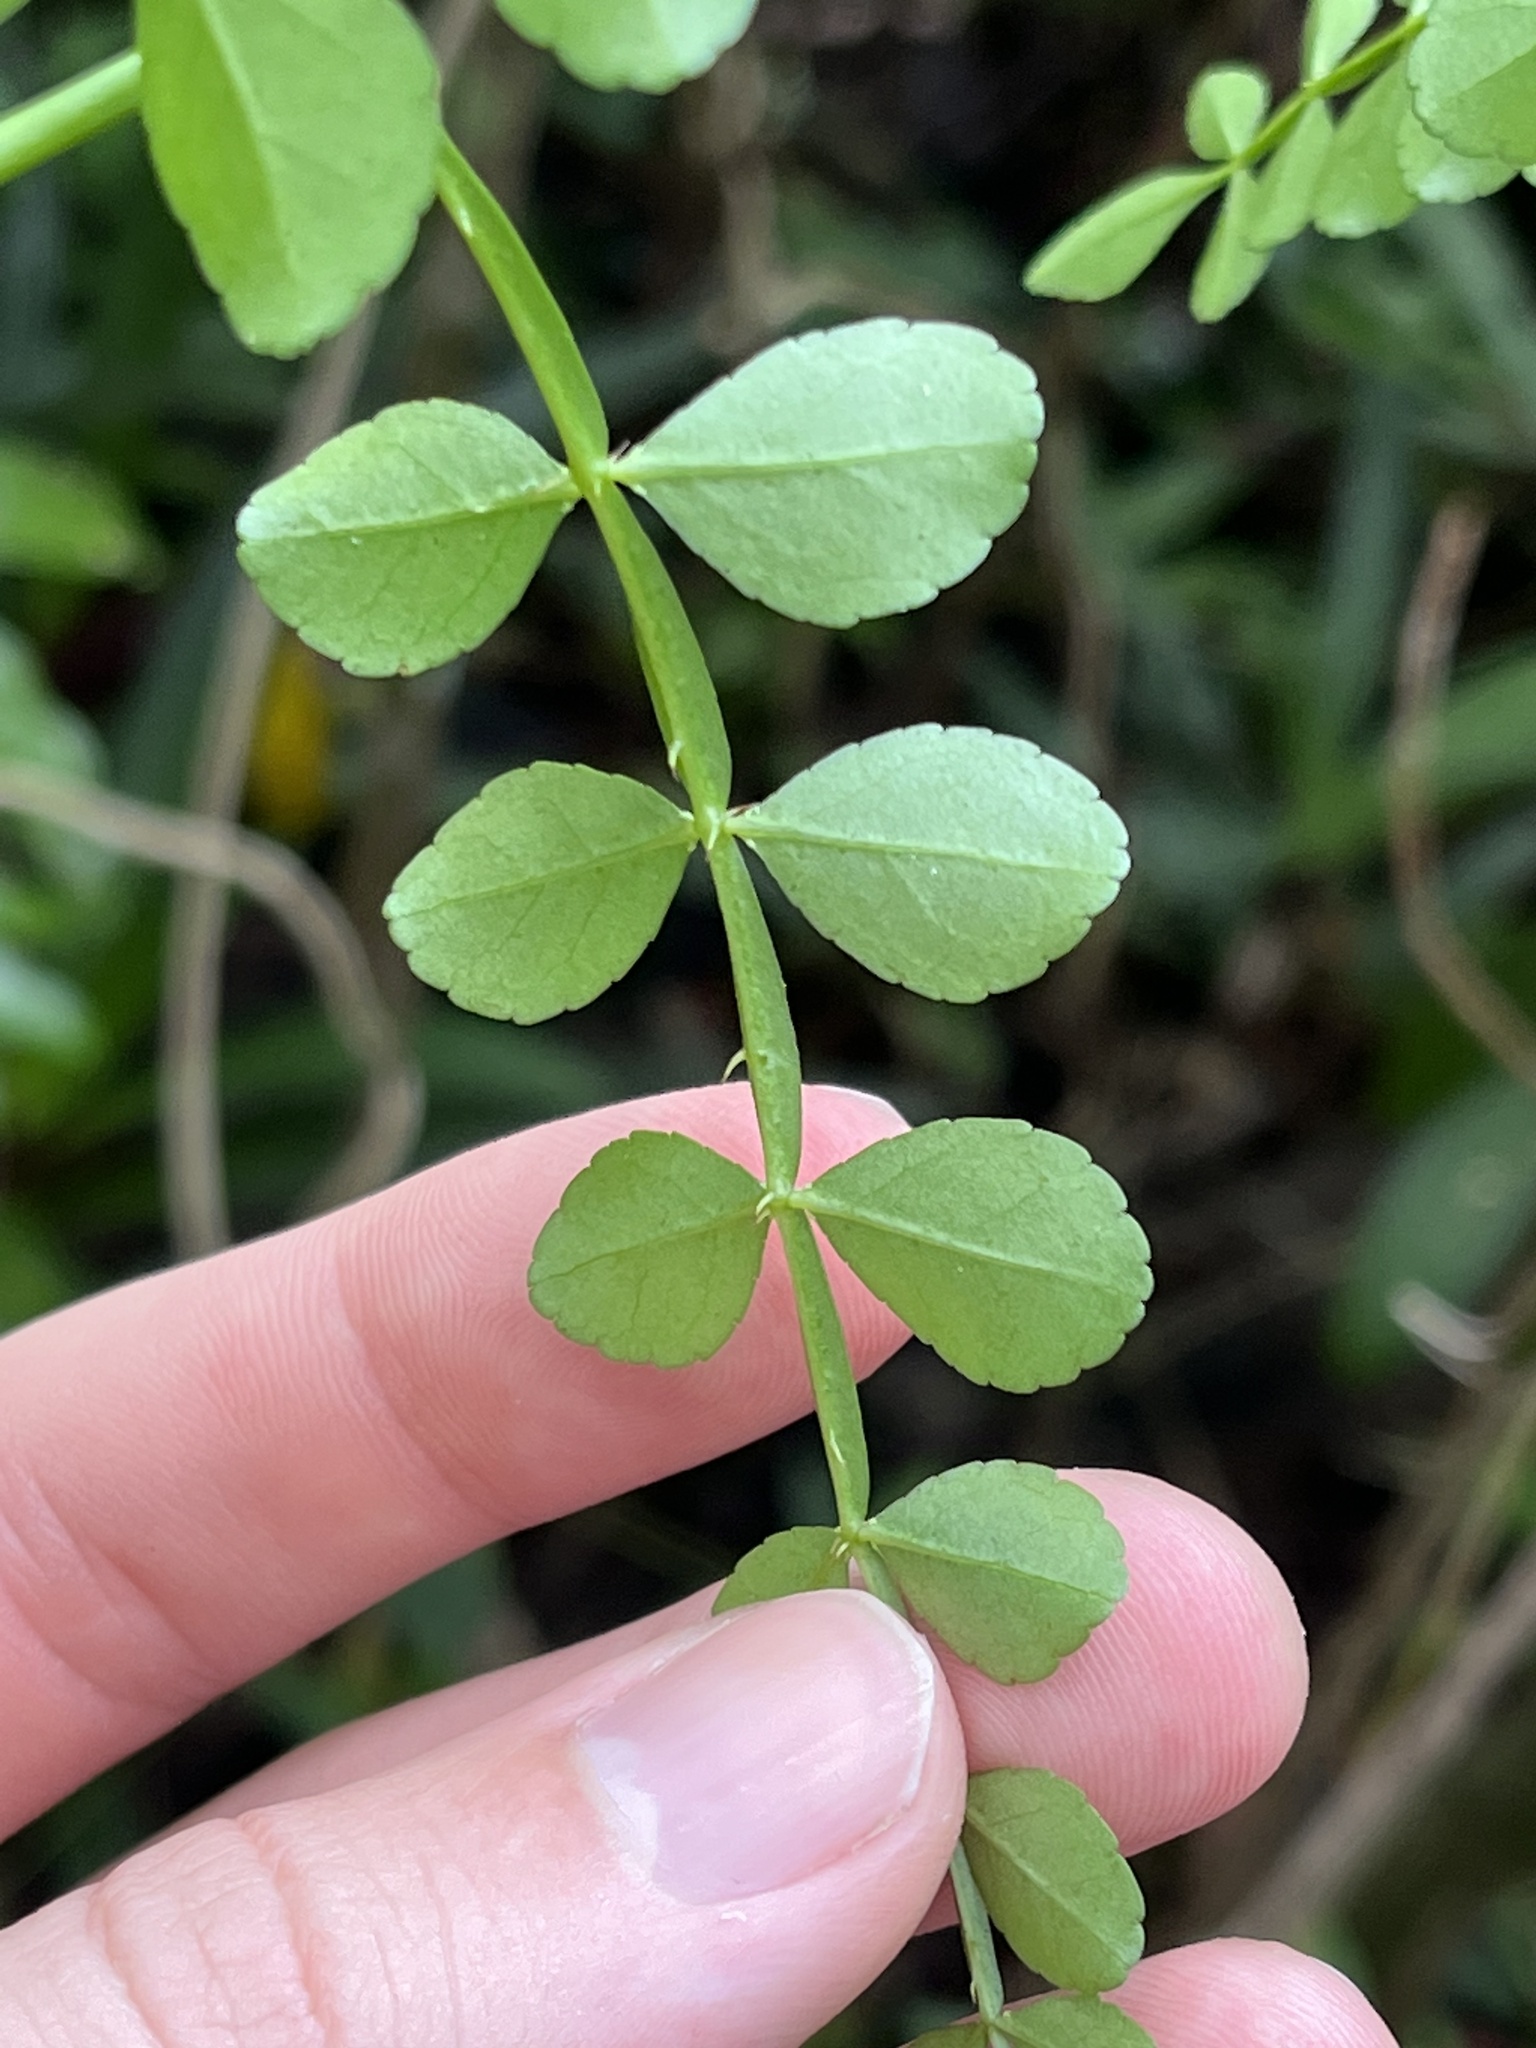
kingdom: Plantae
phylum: Tracheophyta
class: Magnoliopsida
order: Sapindales
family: Rutaceae
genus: Zanthoxylum
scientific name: Zanthoxylum fagara
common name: Lime prickly-ash
